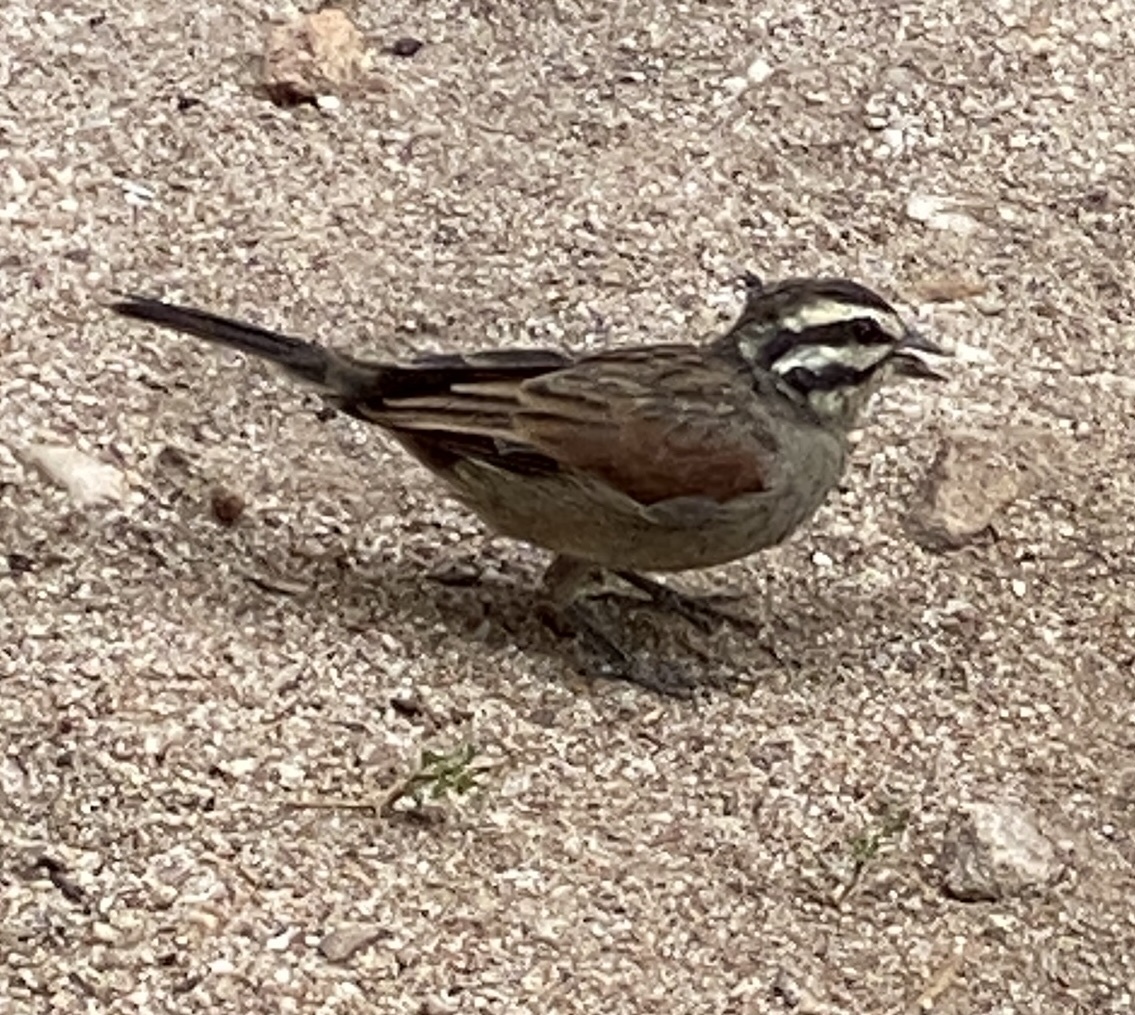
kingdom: Animalia
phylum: Chordata
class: Aves
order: Passeriformes
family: Emberizidae
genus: Emberiza
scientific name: Emberiza capensis
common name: Cape bunting
